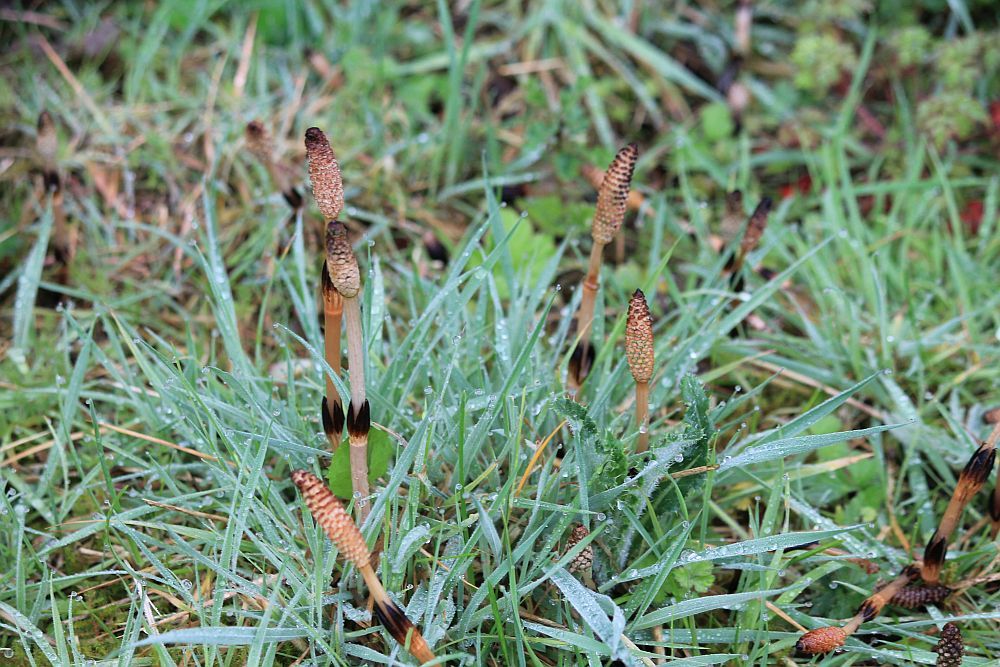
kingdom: Plantae
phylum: Tracheophyta
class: Polypodiopsida
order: Equisetales
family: Equisetaceae
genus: Equisetum
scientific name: Equisetum arvense
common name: Field horsetail
